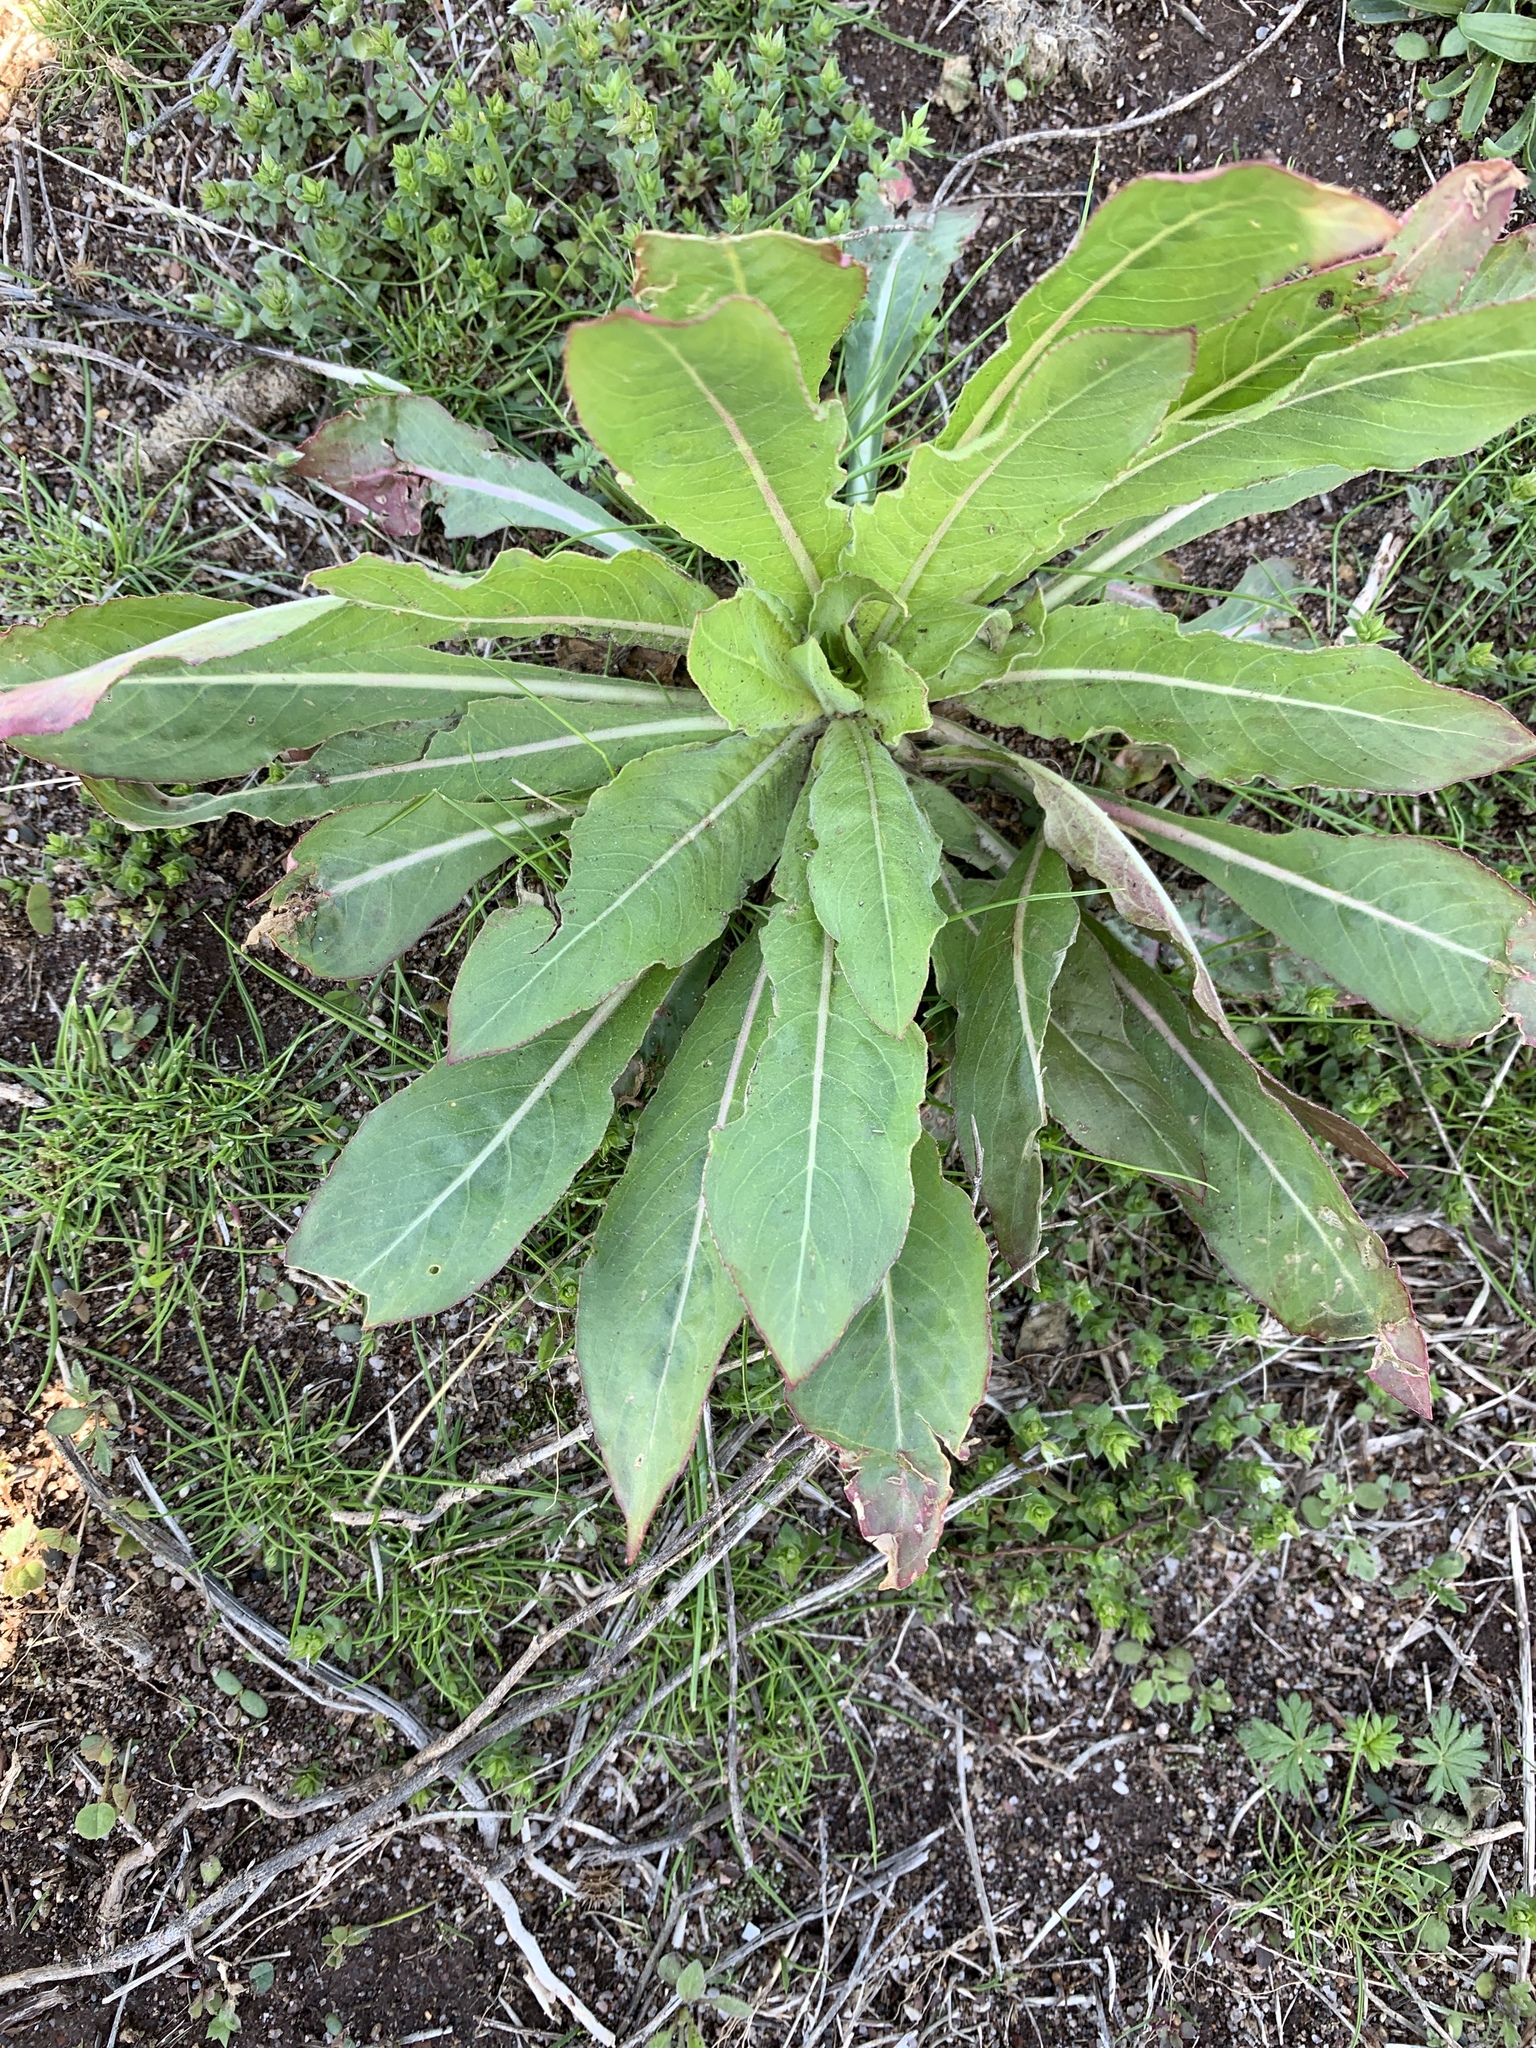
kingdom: Plantae
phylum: Tracheophyta
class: Magnoliopsida
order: Myrtales
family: Onagraceae
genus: Oenothera
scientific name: Oenothera biennis
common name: Common evening-primrose
